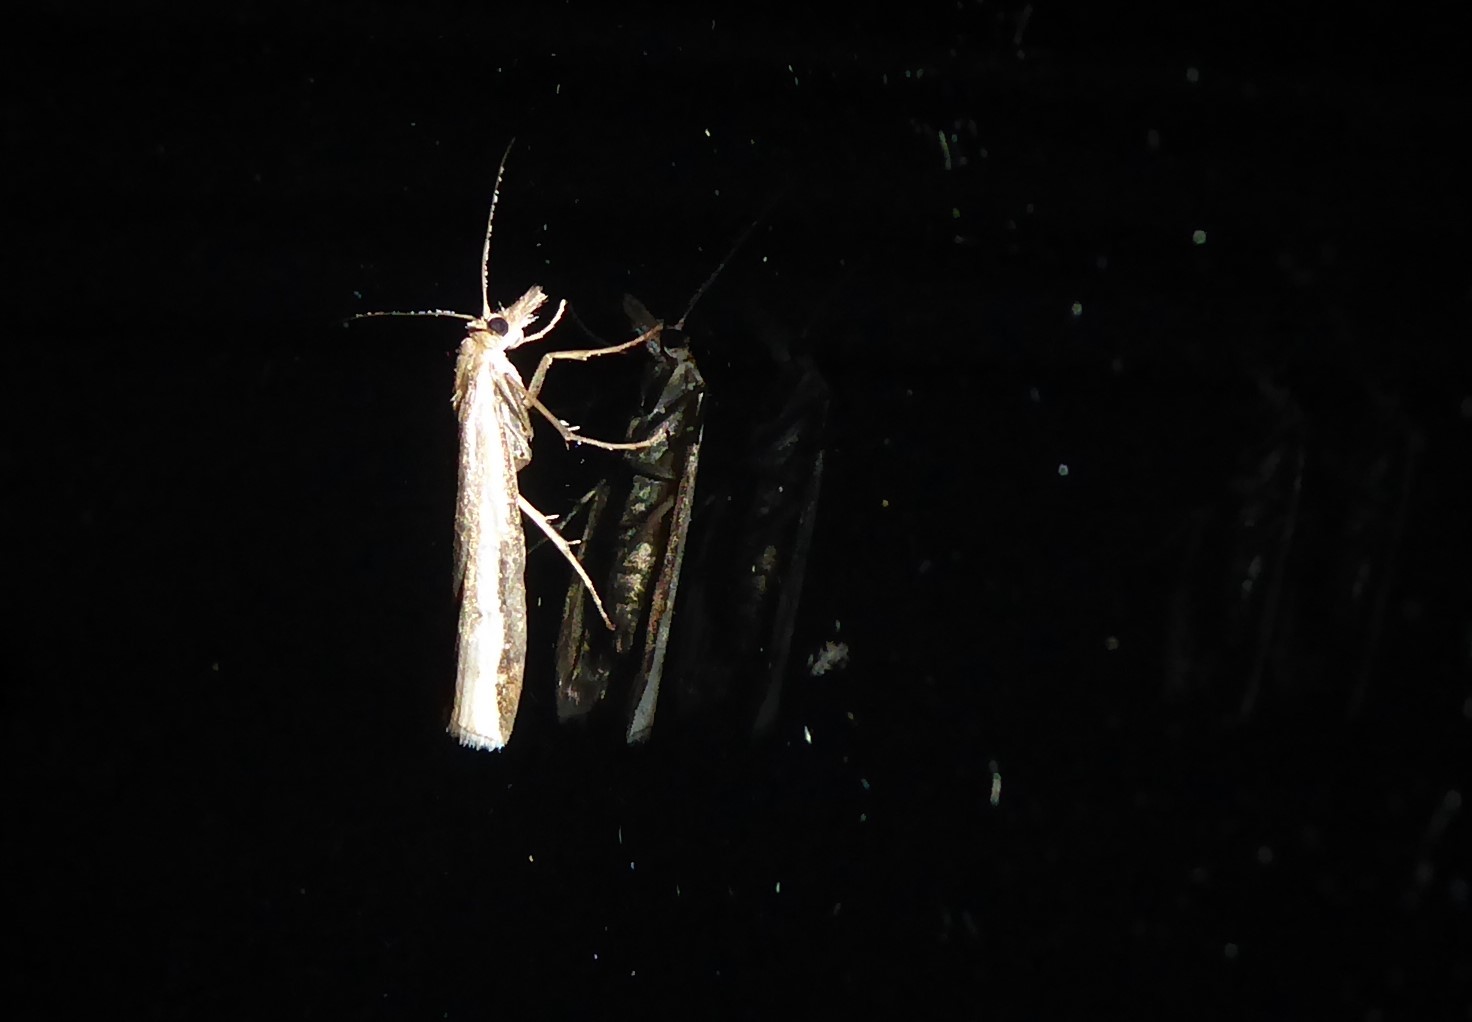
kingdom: Animalia
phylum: Arthropoda
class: Insecta
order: Lepidoptera
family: Crambidae
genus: Orocrambus
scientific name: Orocrambus flexuosellus
